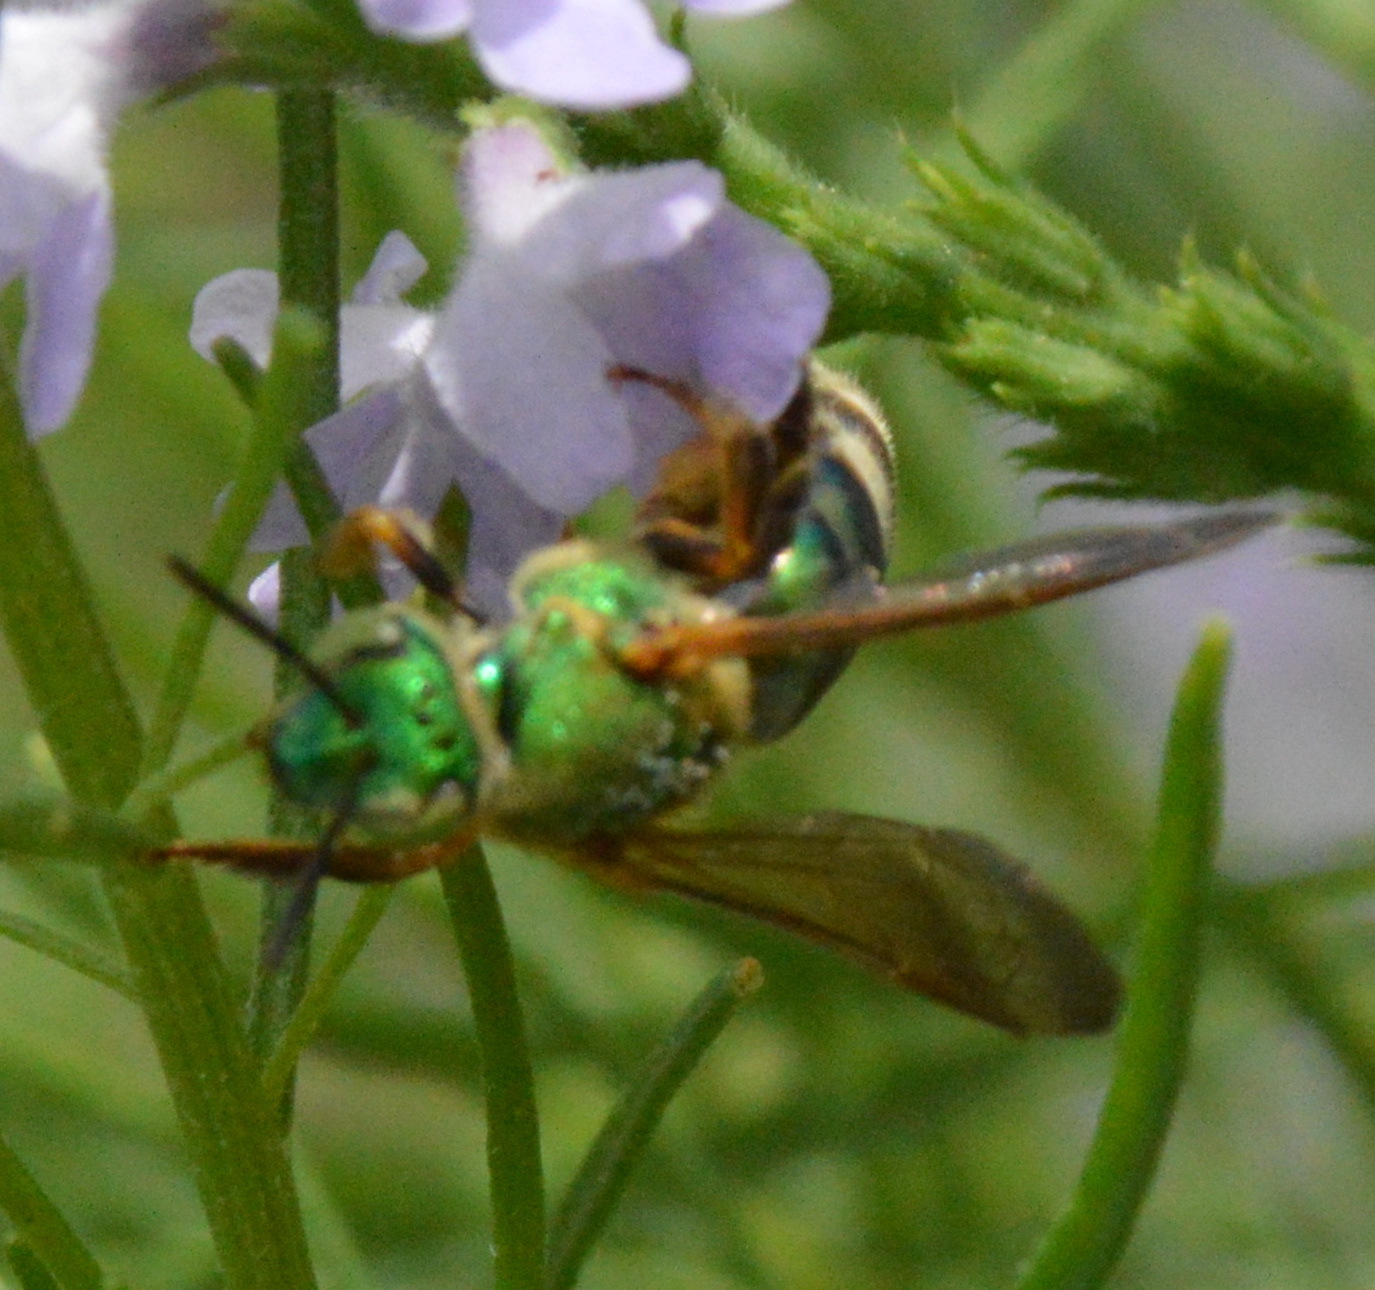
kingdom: Animalia
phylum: Arthropoda
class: Insecta
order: Hymenoptera
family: Halictidae
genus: Agapostemon
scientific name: Agapostemon splendens
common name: Brown-winged striped sweat bee
